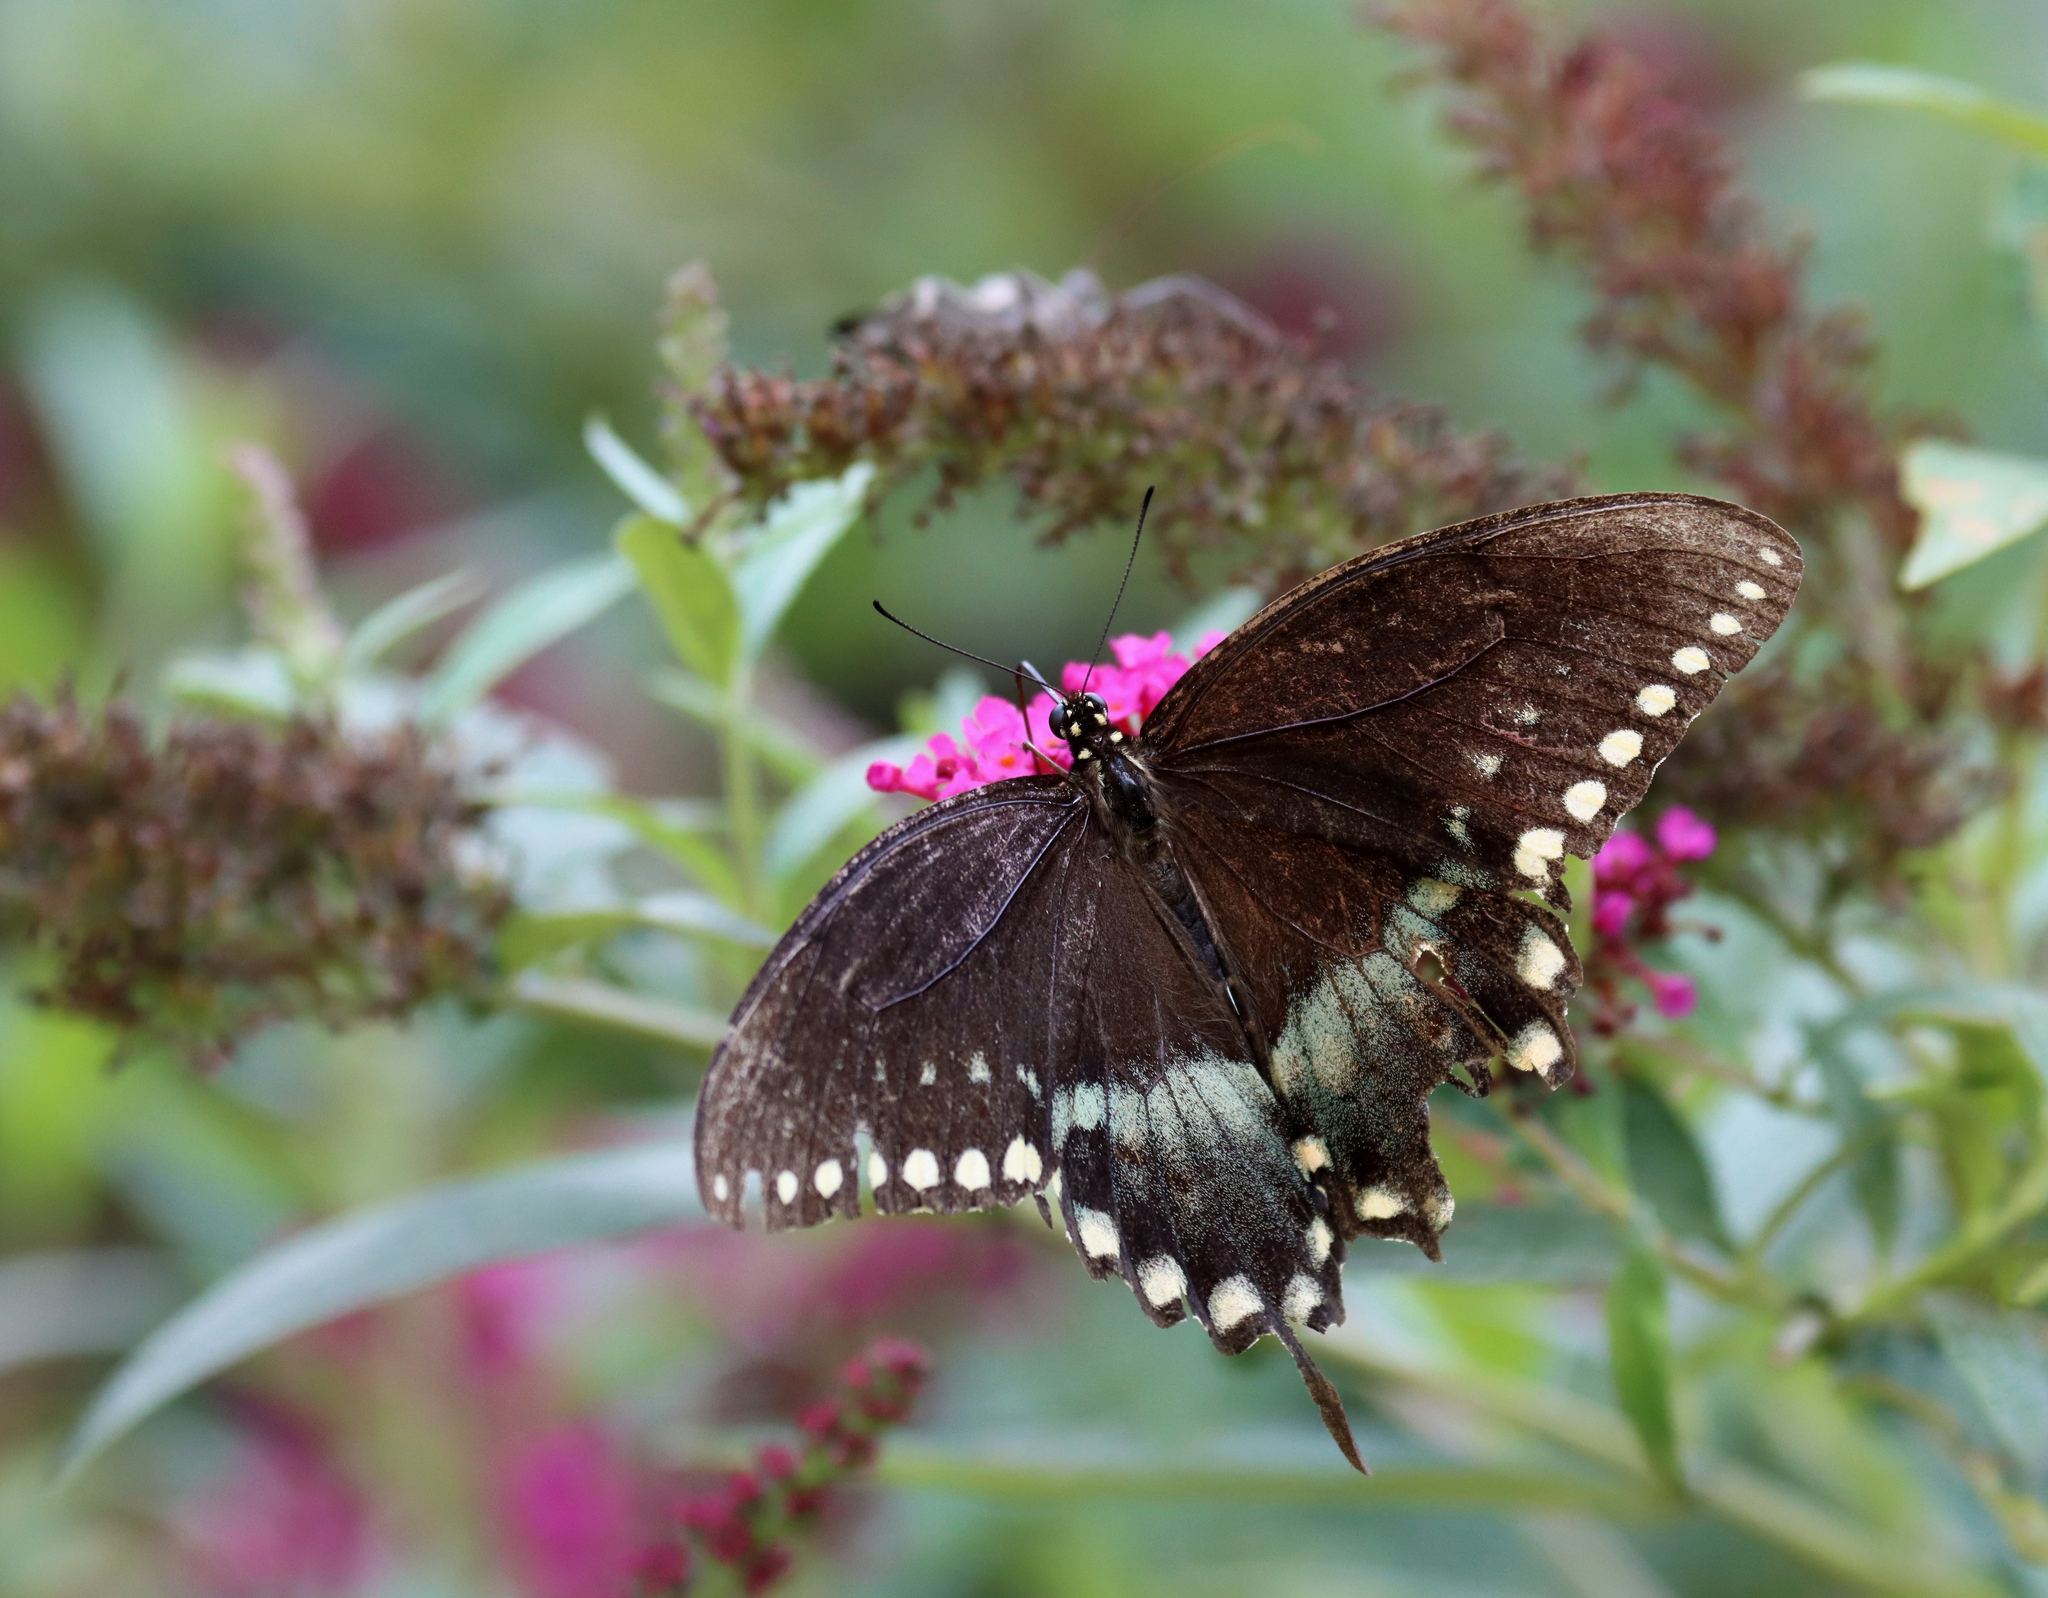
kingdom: Animalia
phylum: Arthropoda
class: Insecta
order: Lepidoptera
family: Papilionidae
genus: Papilio
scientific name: Papilio troilus
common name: Spicebush swallowtail
